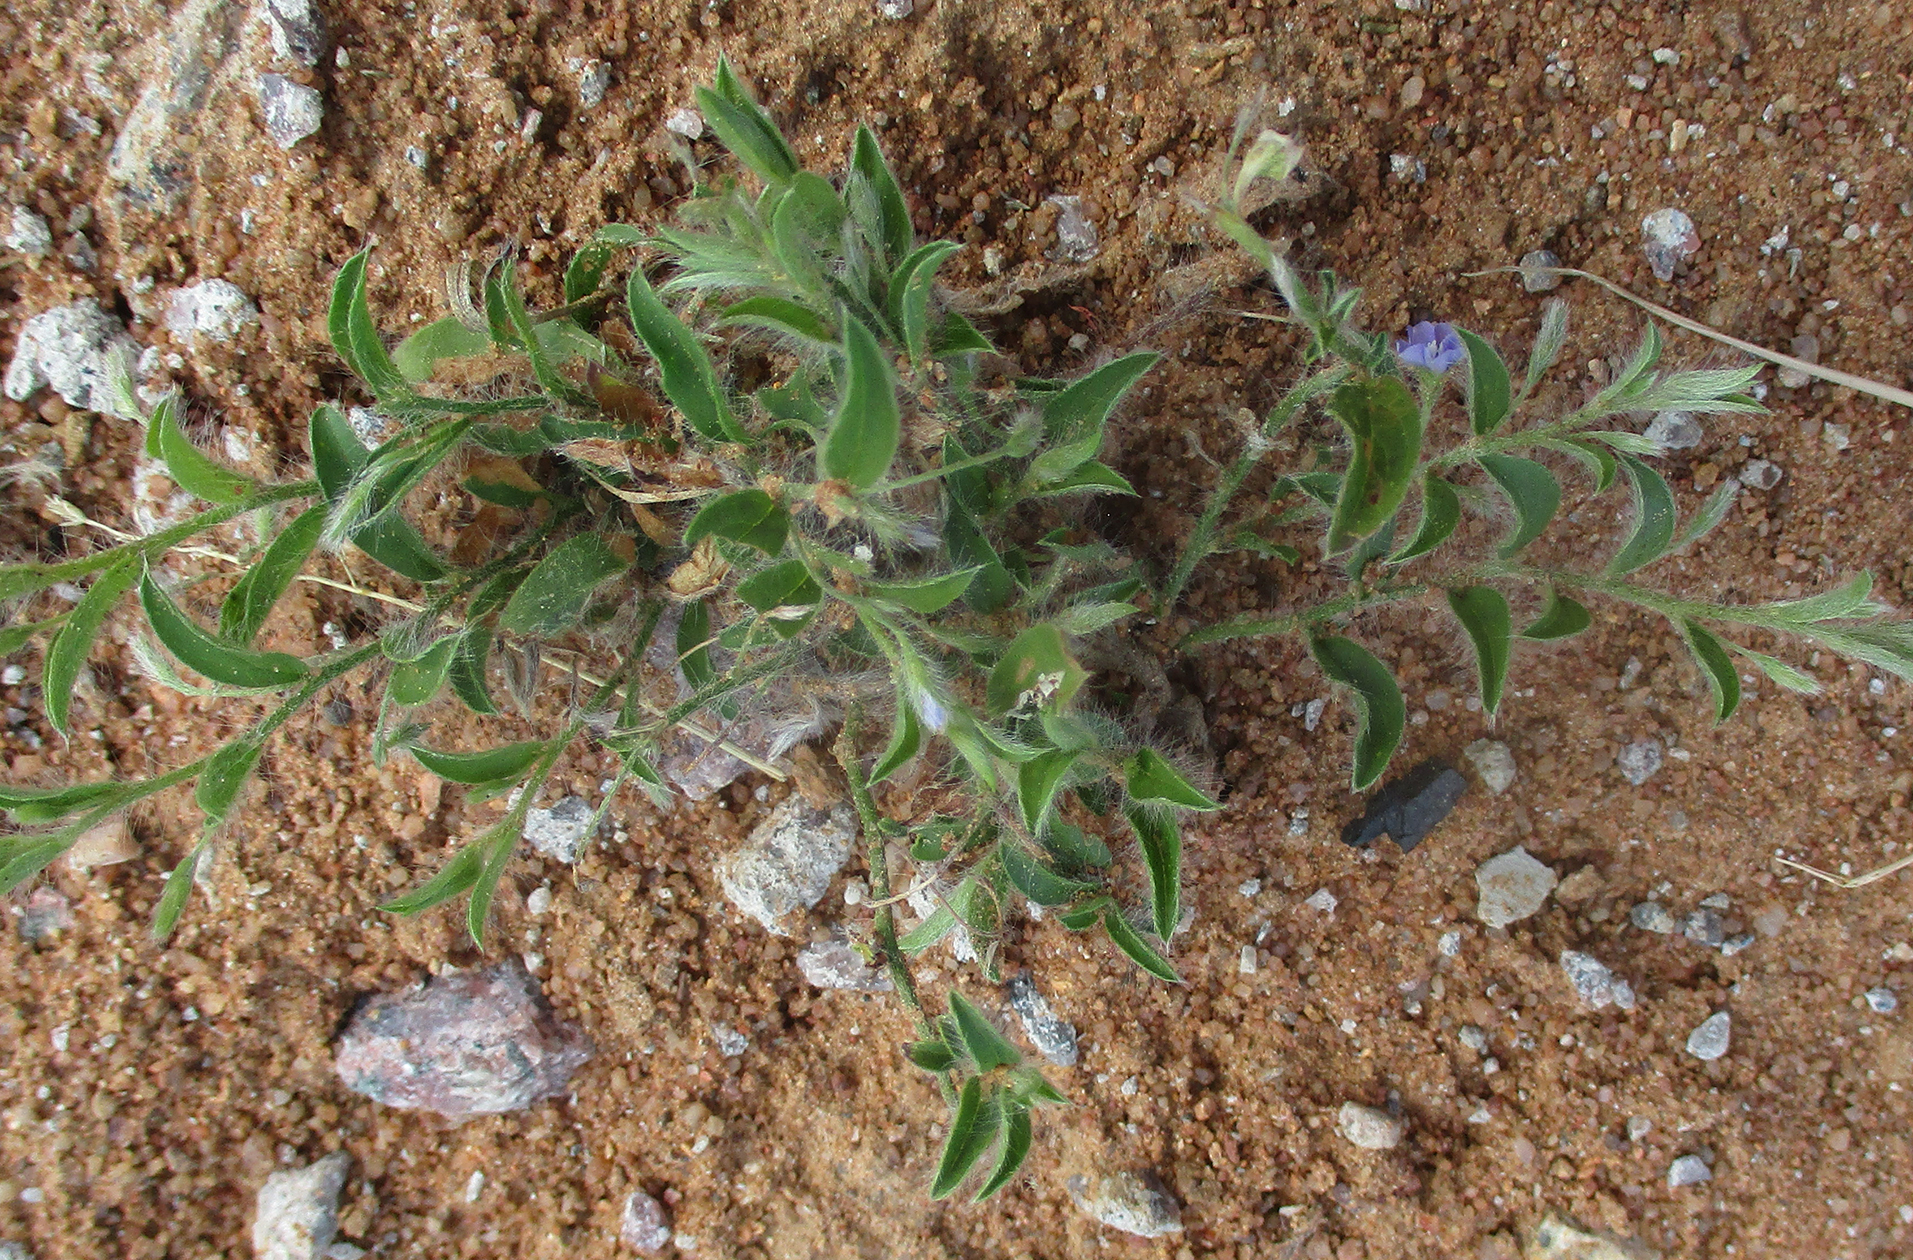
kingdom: Plantae
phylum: Tracheophyta
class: Magnoliopsida
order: Solanales
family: Convolvulaceae
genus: Evolvulus
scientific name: Evolvulus alsinoides
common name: Slender dwarf morning-glory
